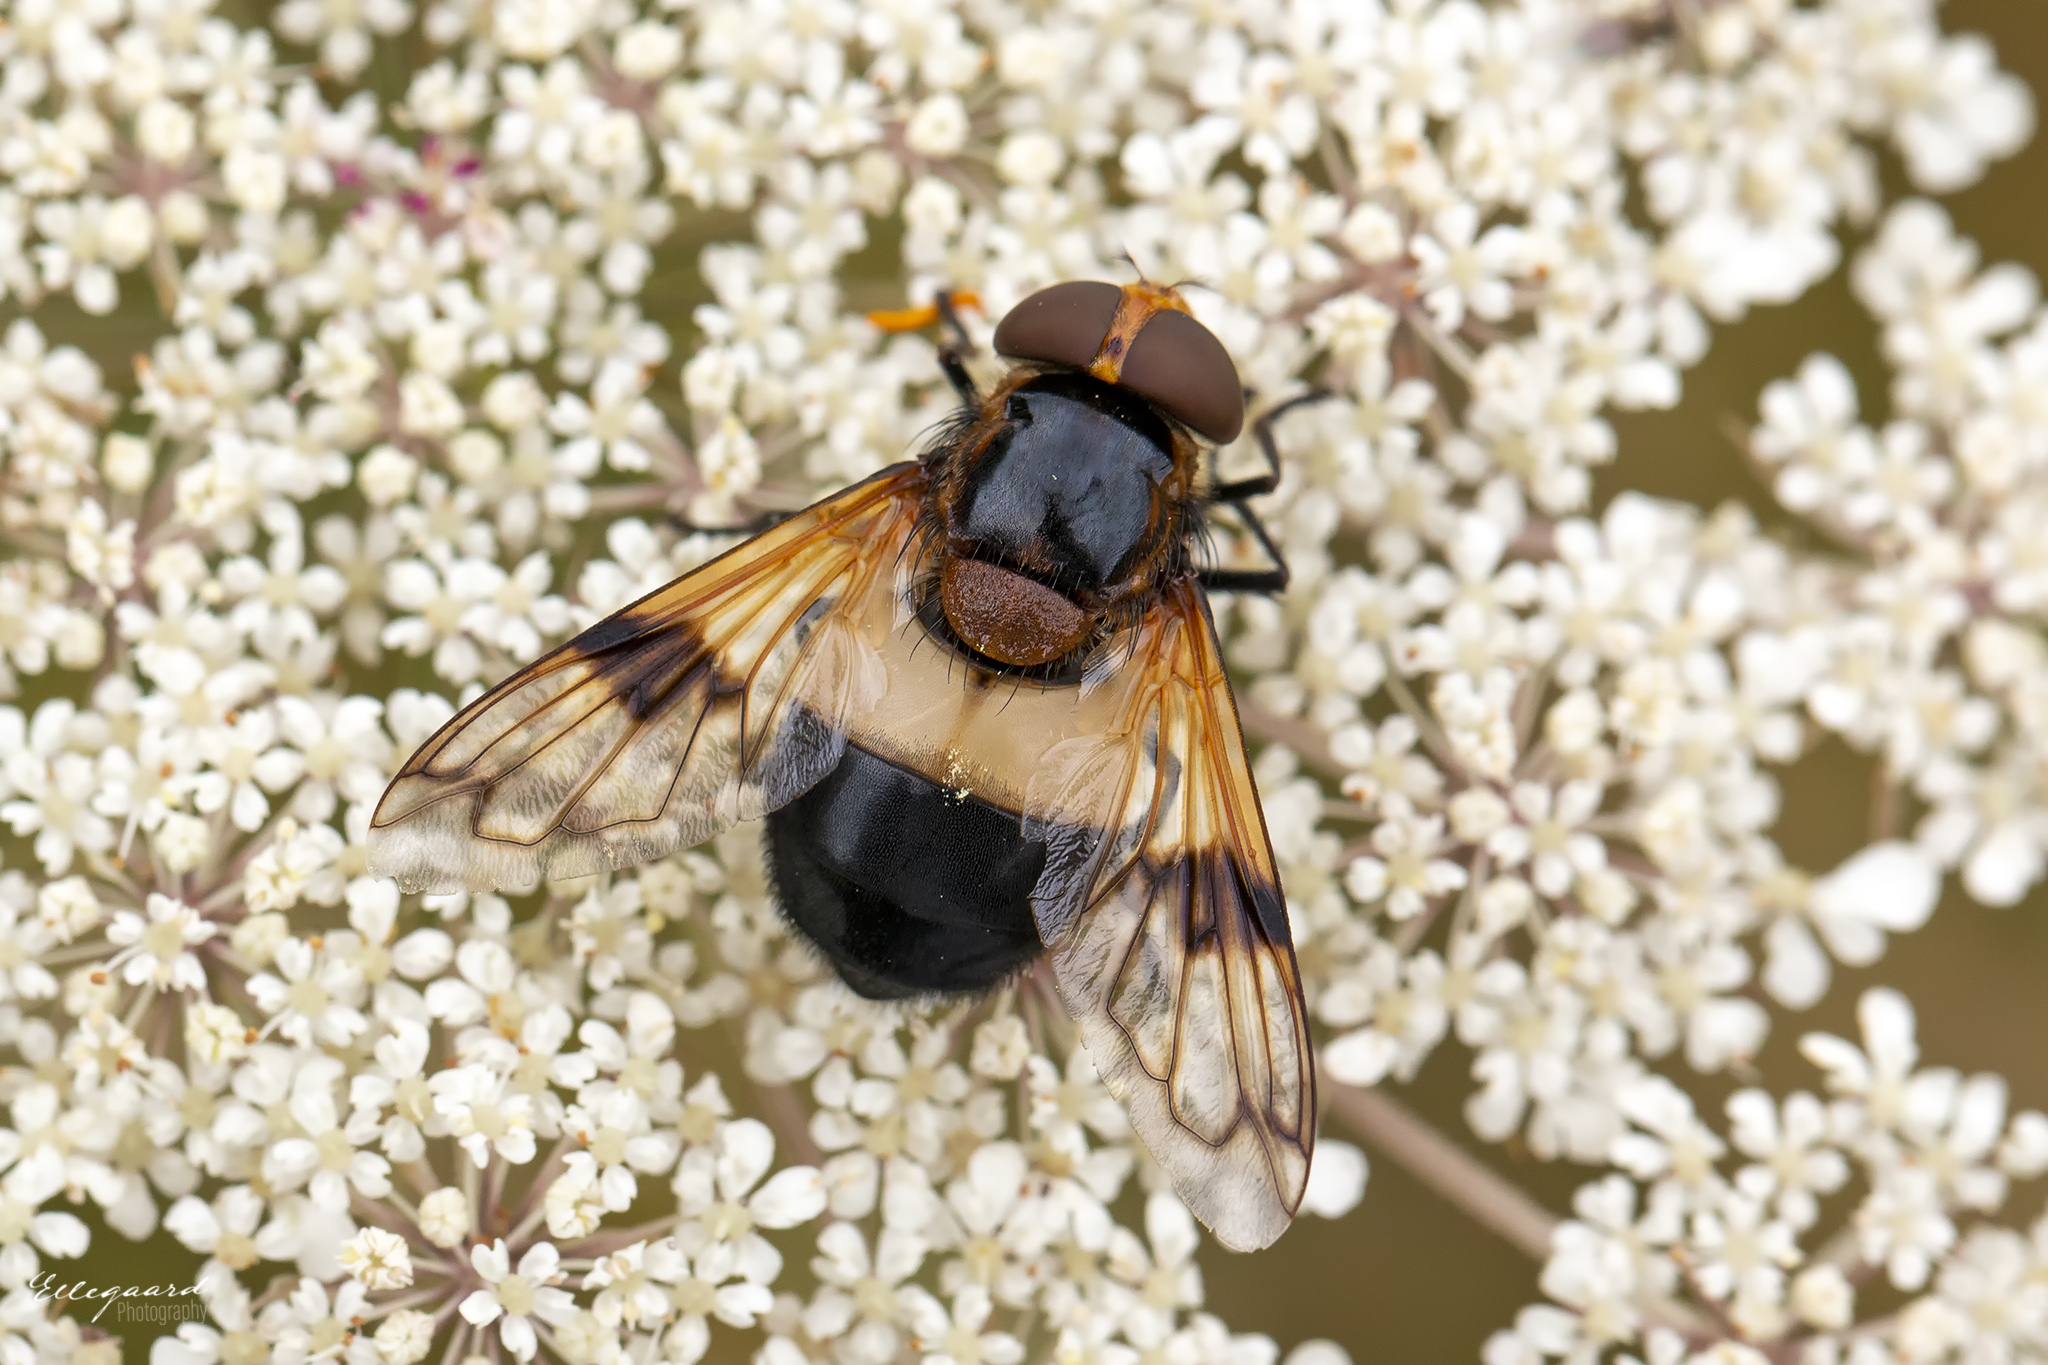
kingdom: Animalia
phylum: Arthropoda
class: Insecta
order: Diptera
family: Syrphidae
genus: Volucella
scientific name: Volucella pellucens
